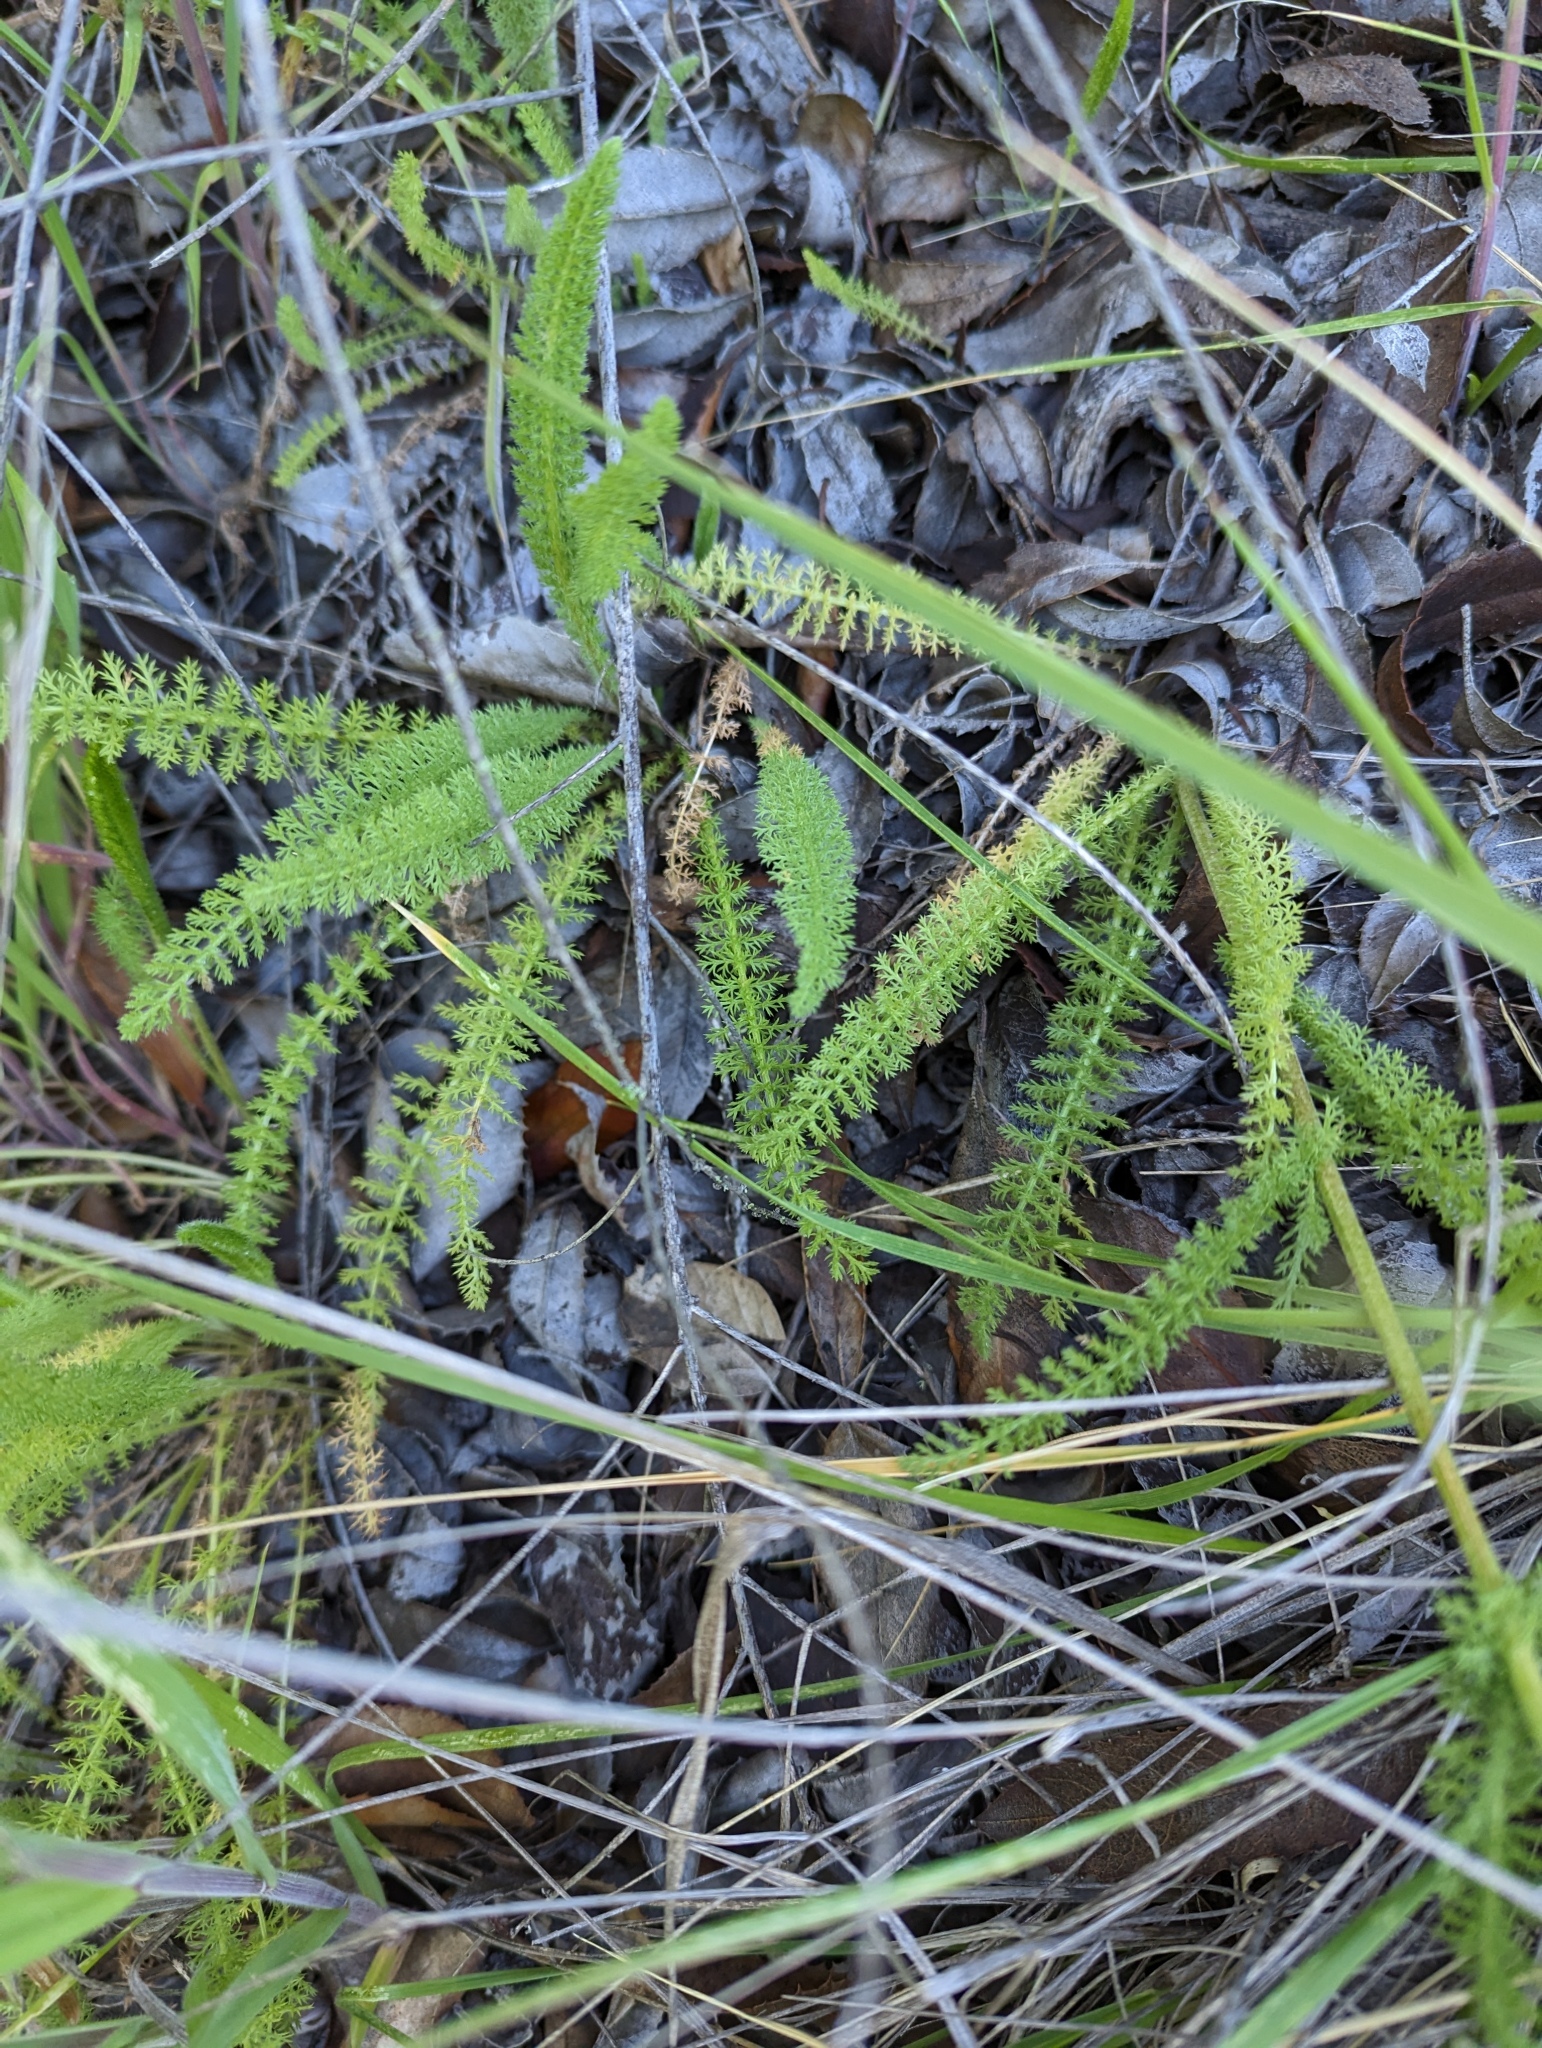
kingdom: Plantae
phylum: Tracheophyta
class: Magnoliopsida
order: Asterales
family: Asteraceae
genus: Achillea
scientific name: Achillea millefolium
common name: Yarrow
